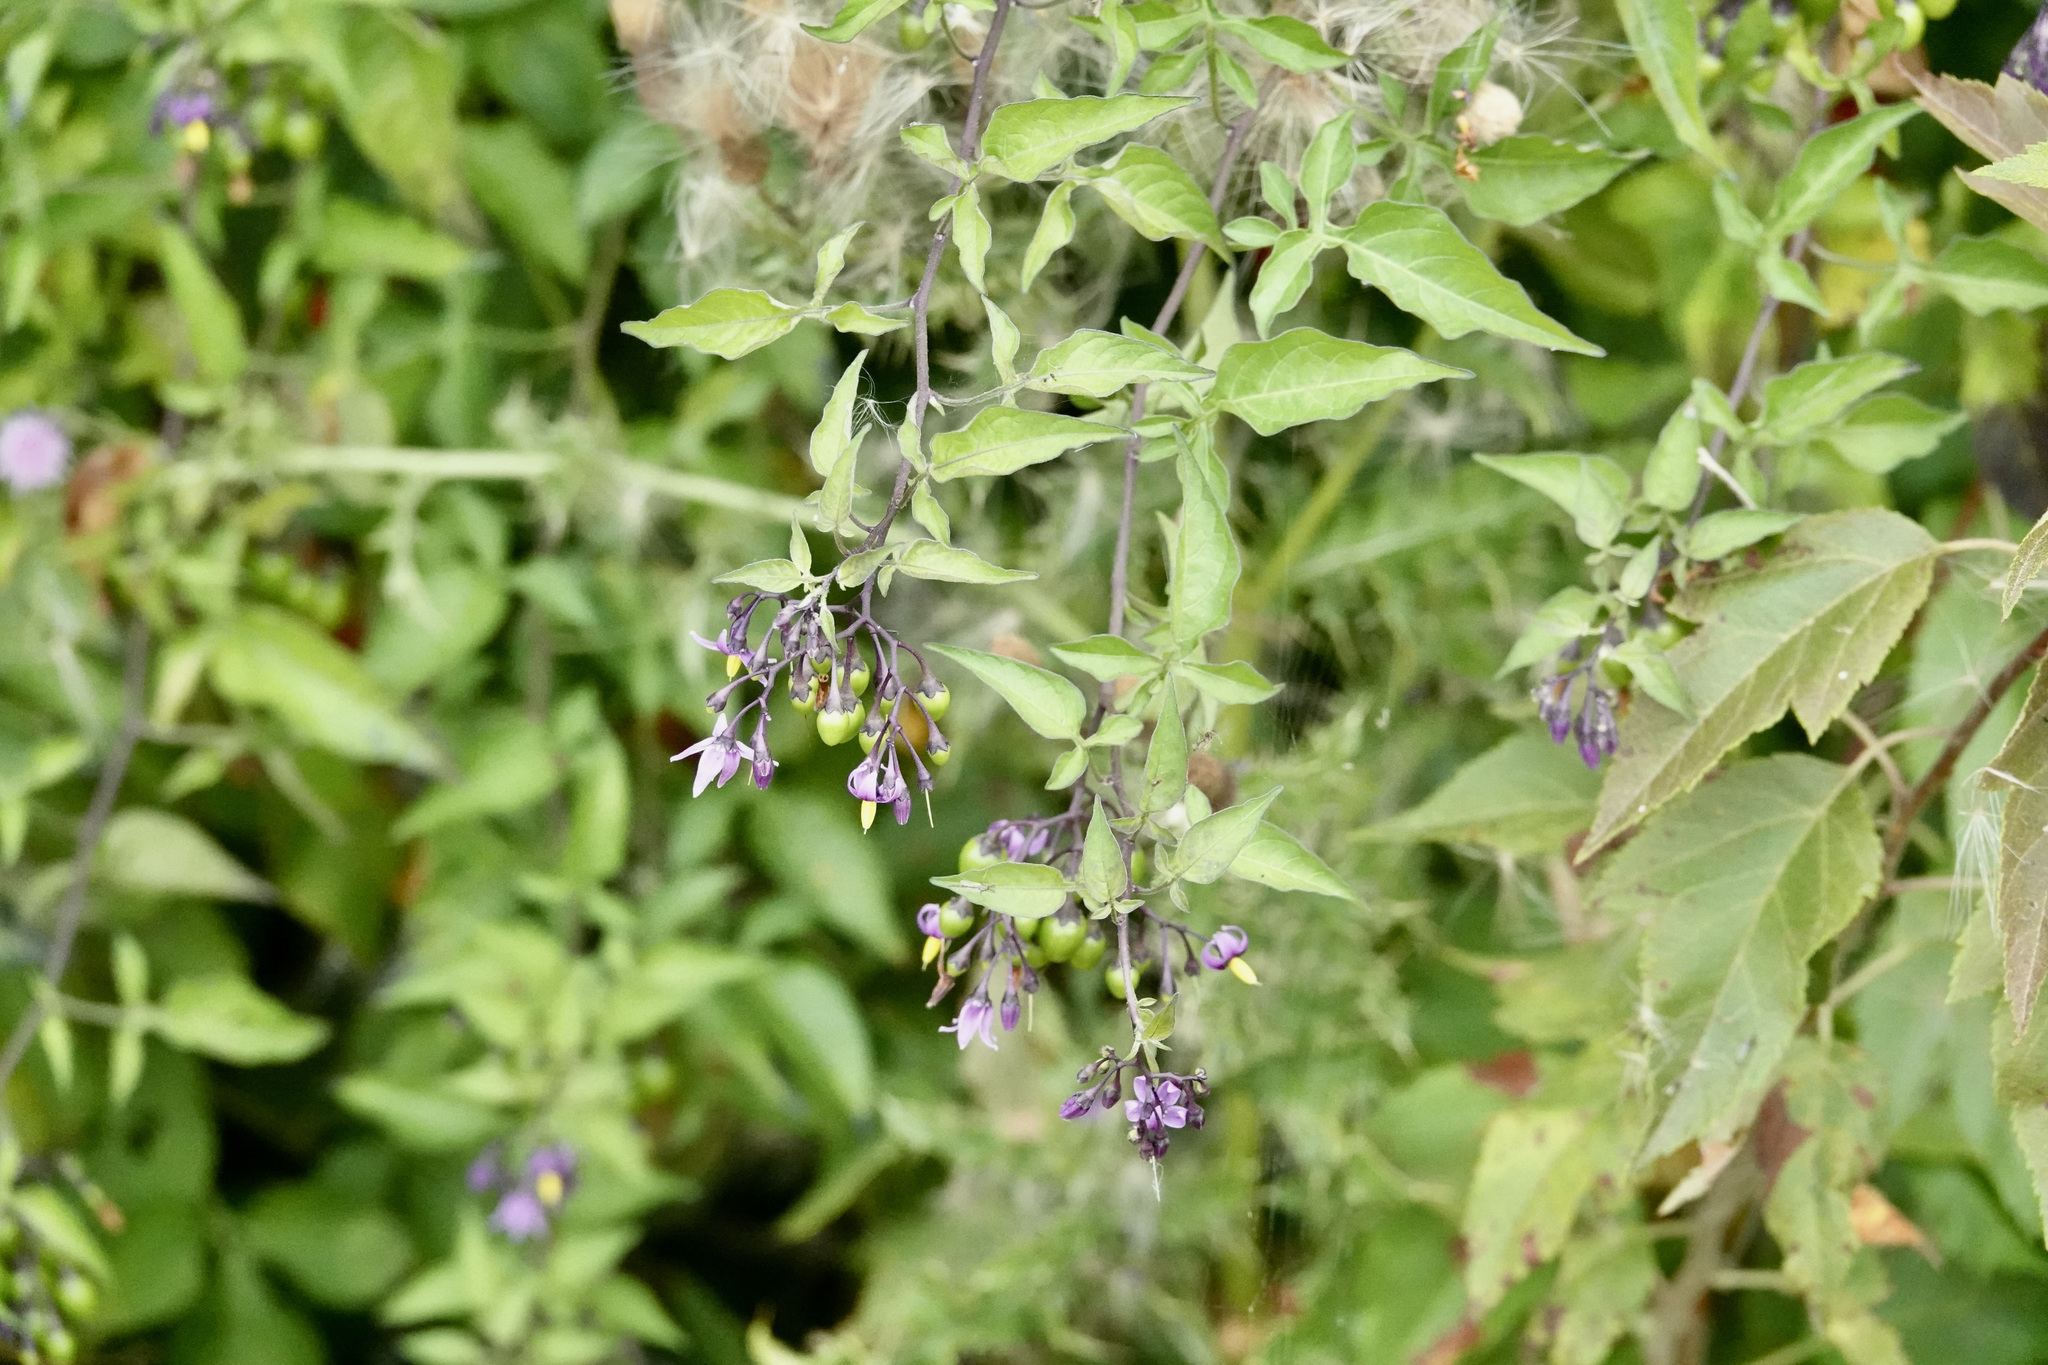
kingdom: Plantae
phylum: Tracheophyta
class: Magnoliopsida
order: Solanales
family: Solanaceae
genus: Solanum
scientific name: Solanum dulcamara
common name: Climbing nightshade
